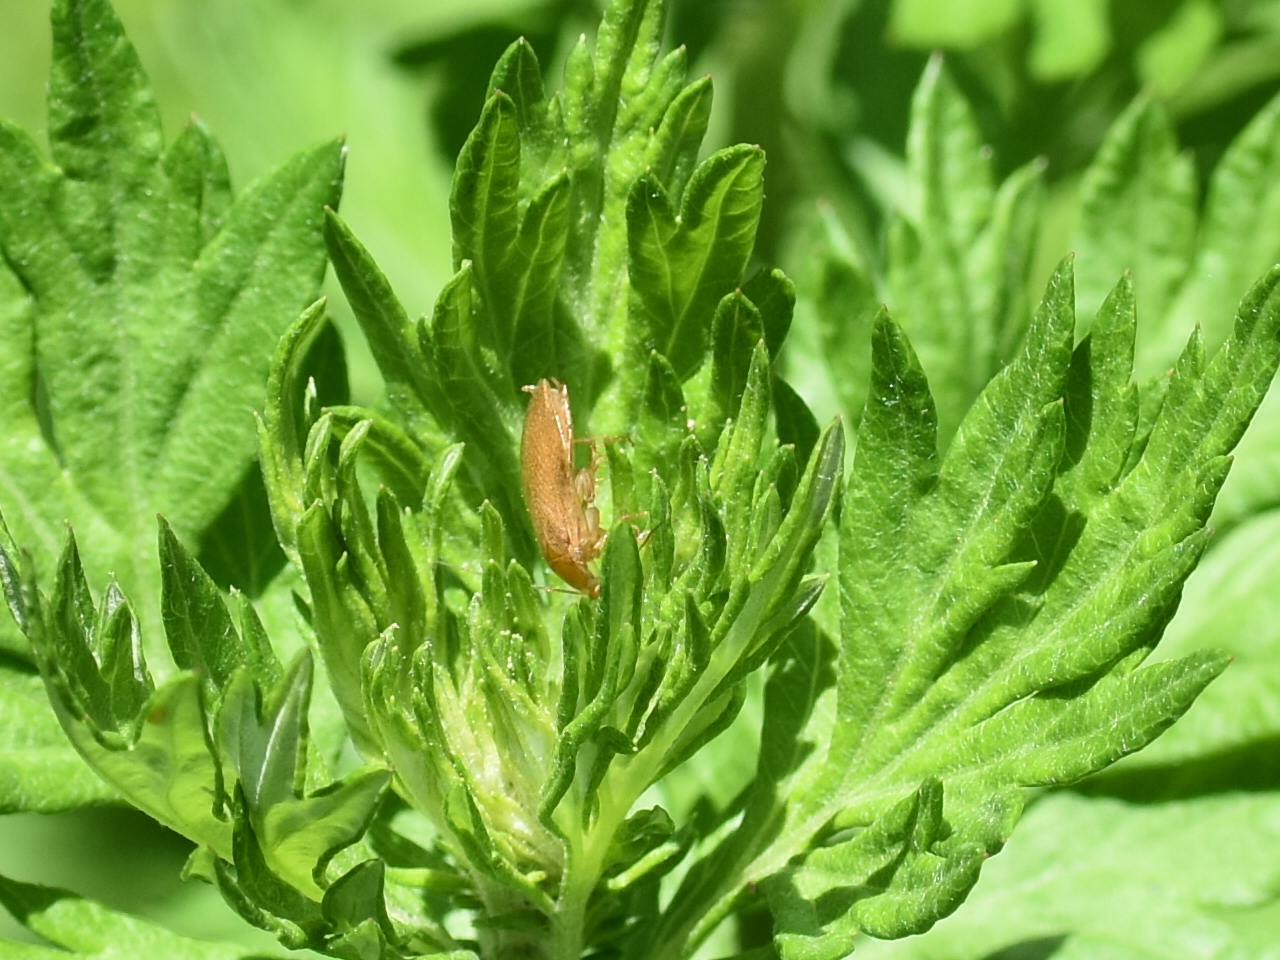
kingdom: Animalia
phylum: Arthropoda
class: Insecta
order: Blattodea
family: Ectobiidae
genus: Ectobius
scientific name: Ectobius pallidus
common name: Tawny cockroach
